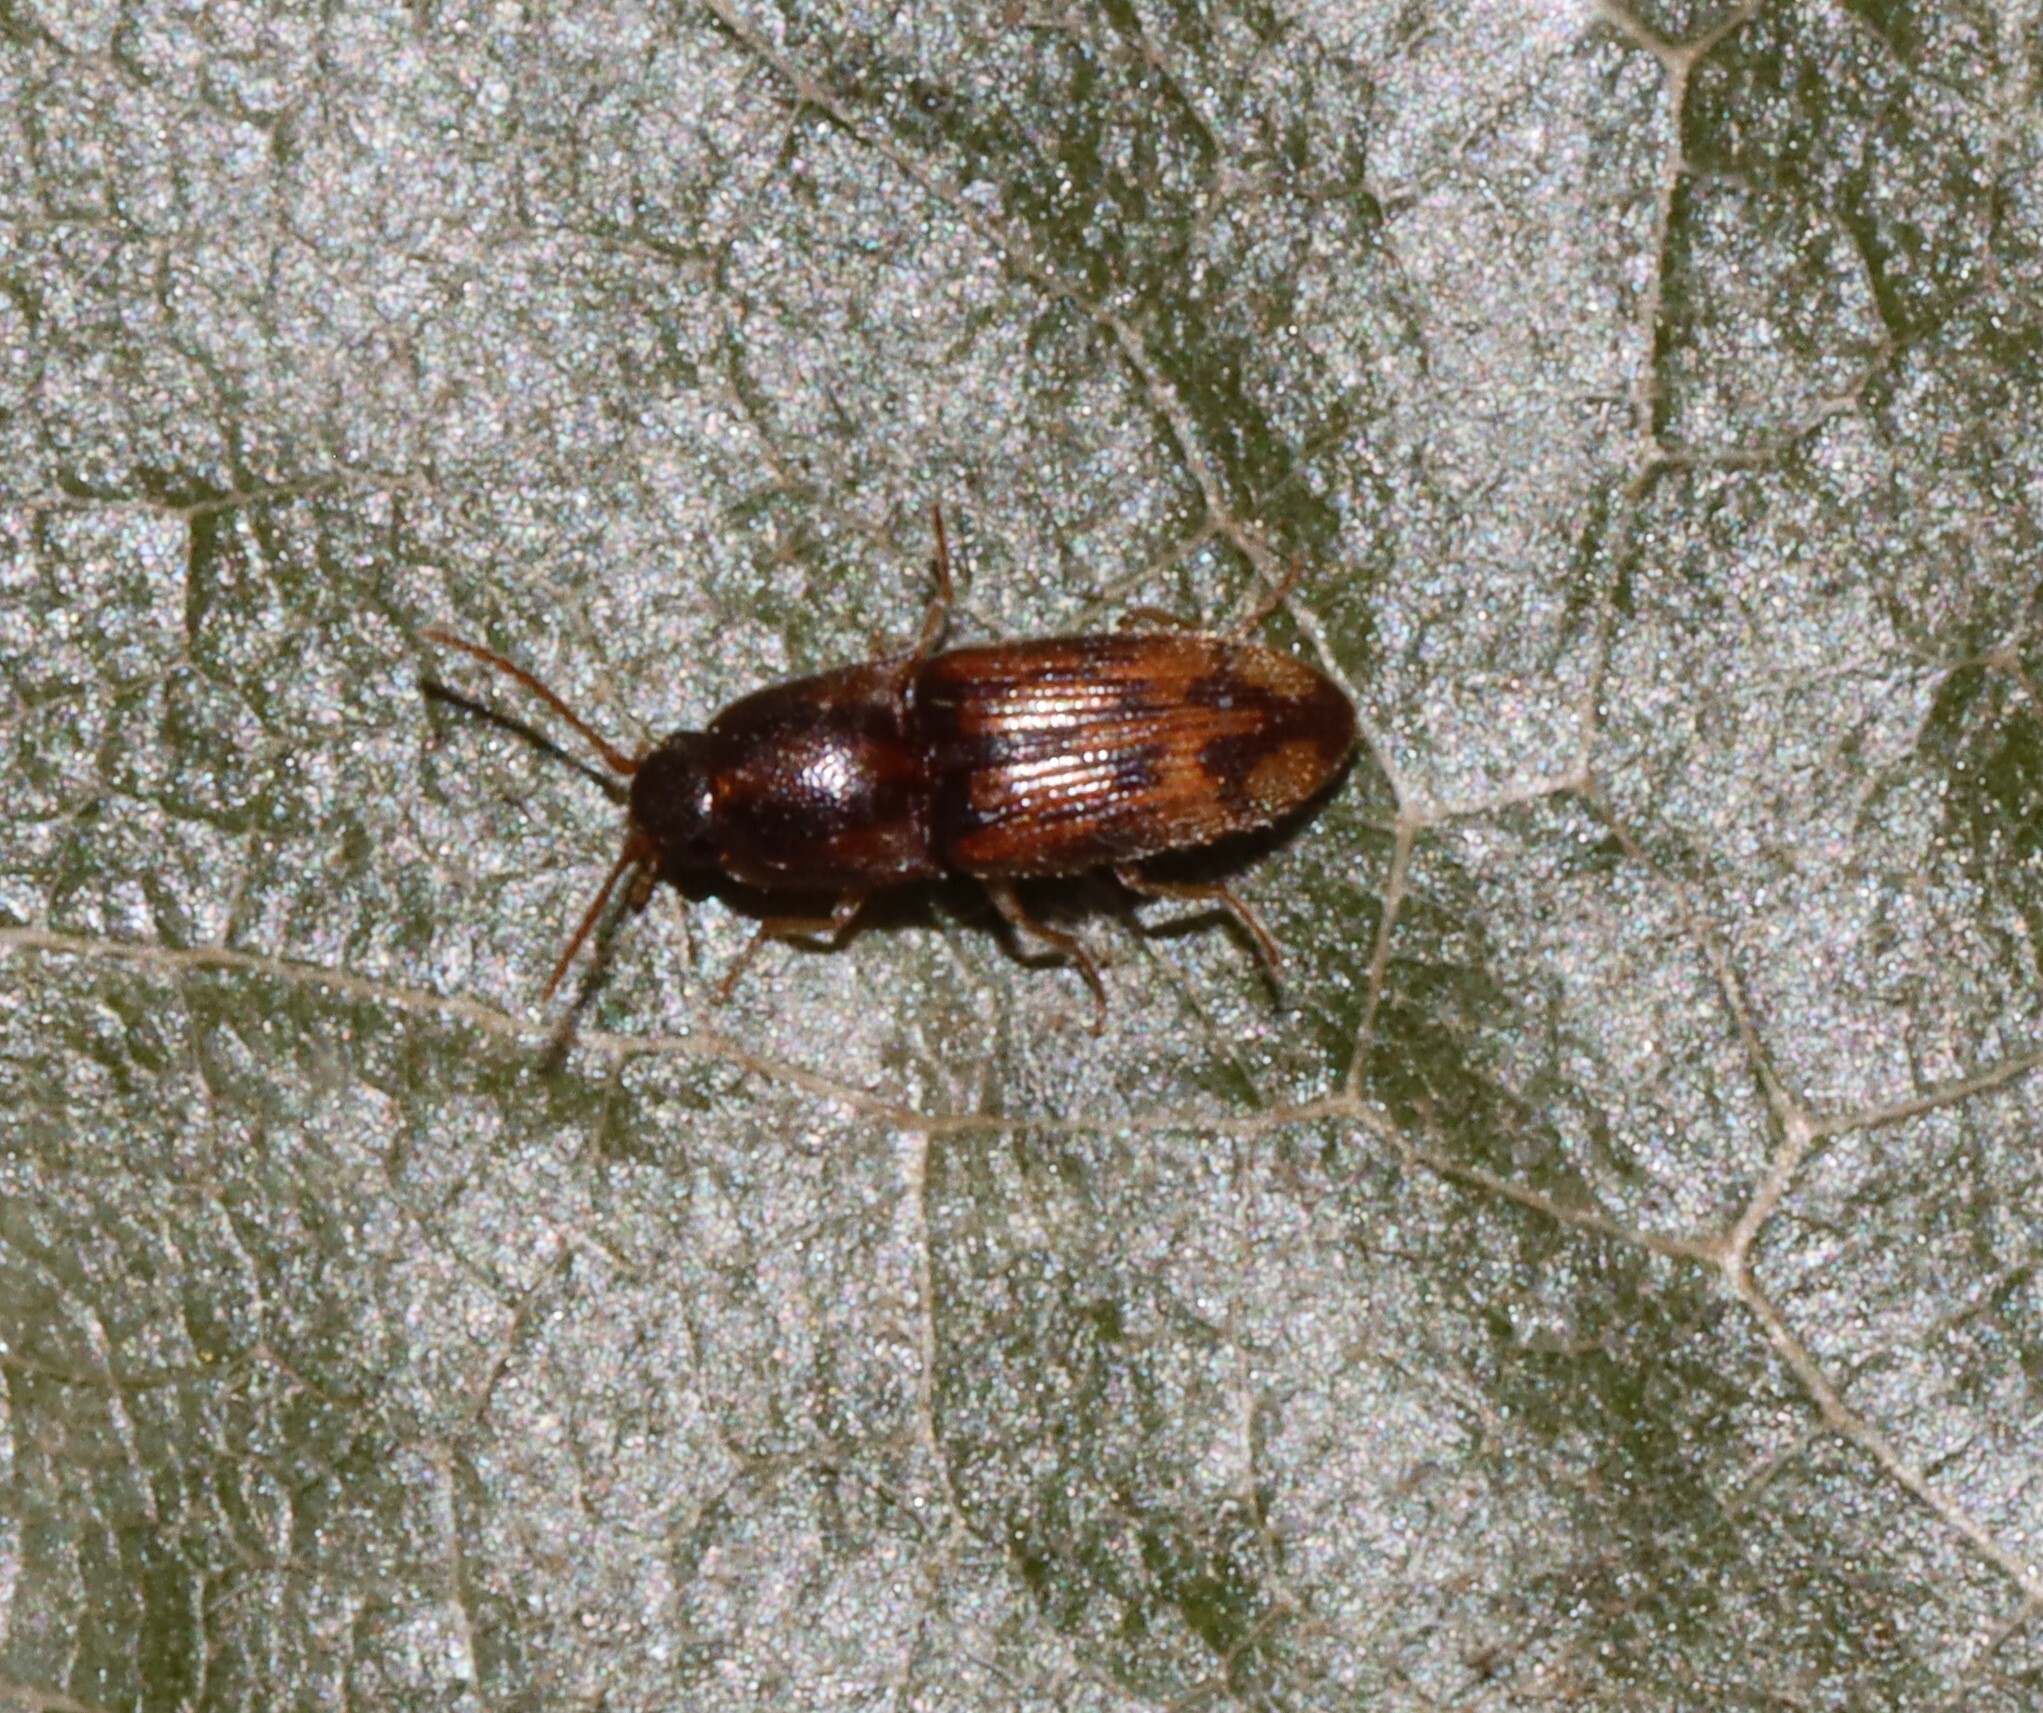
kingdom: Animalia
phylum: Arthropoda
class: Insecta
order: Coleoptera
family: Elateridae
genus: Monocrepidius
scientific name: Monocrepidius bellus
